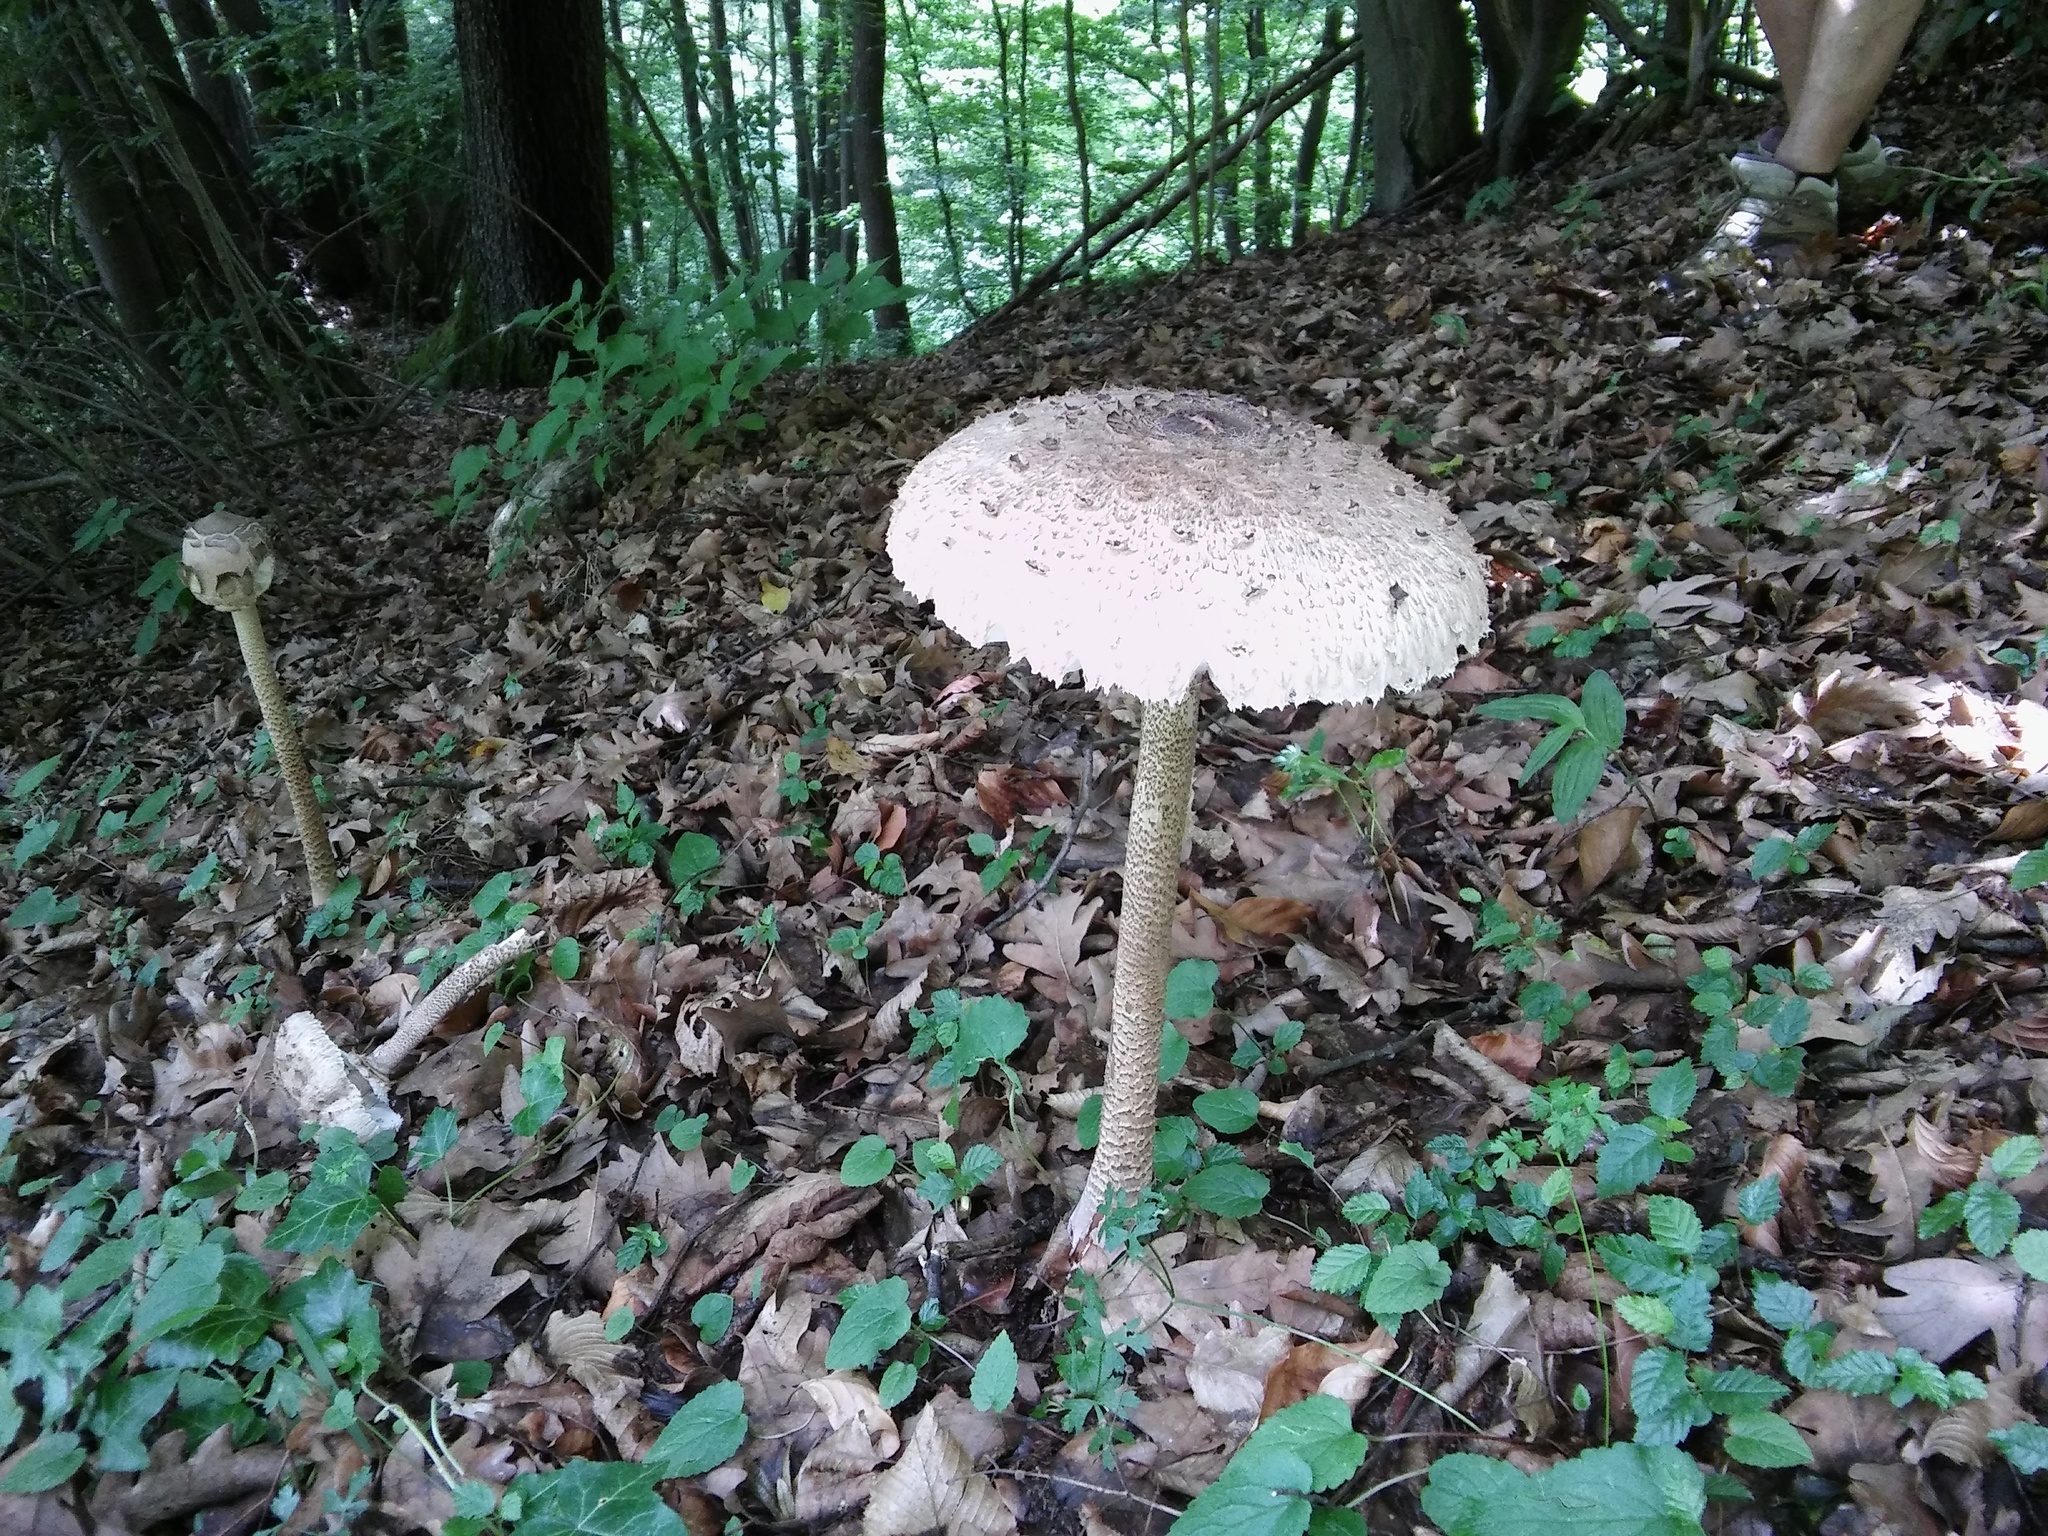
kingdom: Fungi
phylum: Basidiomycota
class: Agaricomycetes
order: Agaricales
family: Agaricaceae
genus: Macrolepiota
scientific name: Macrolepiota procera
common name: Parasol
